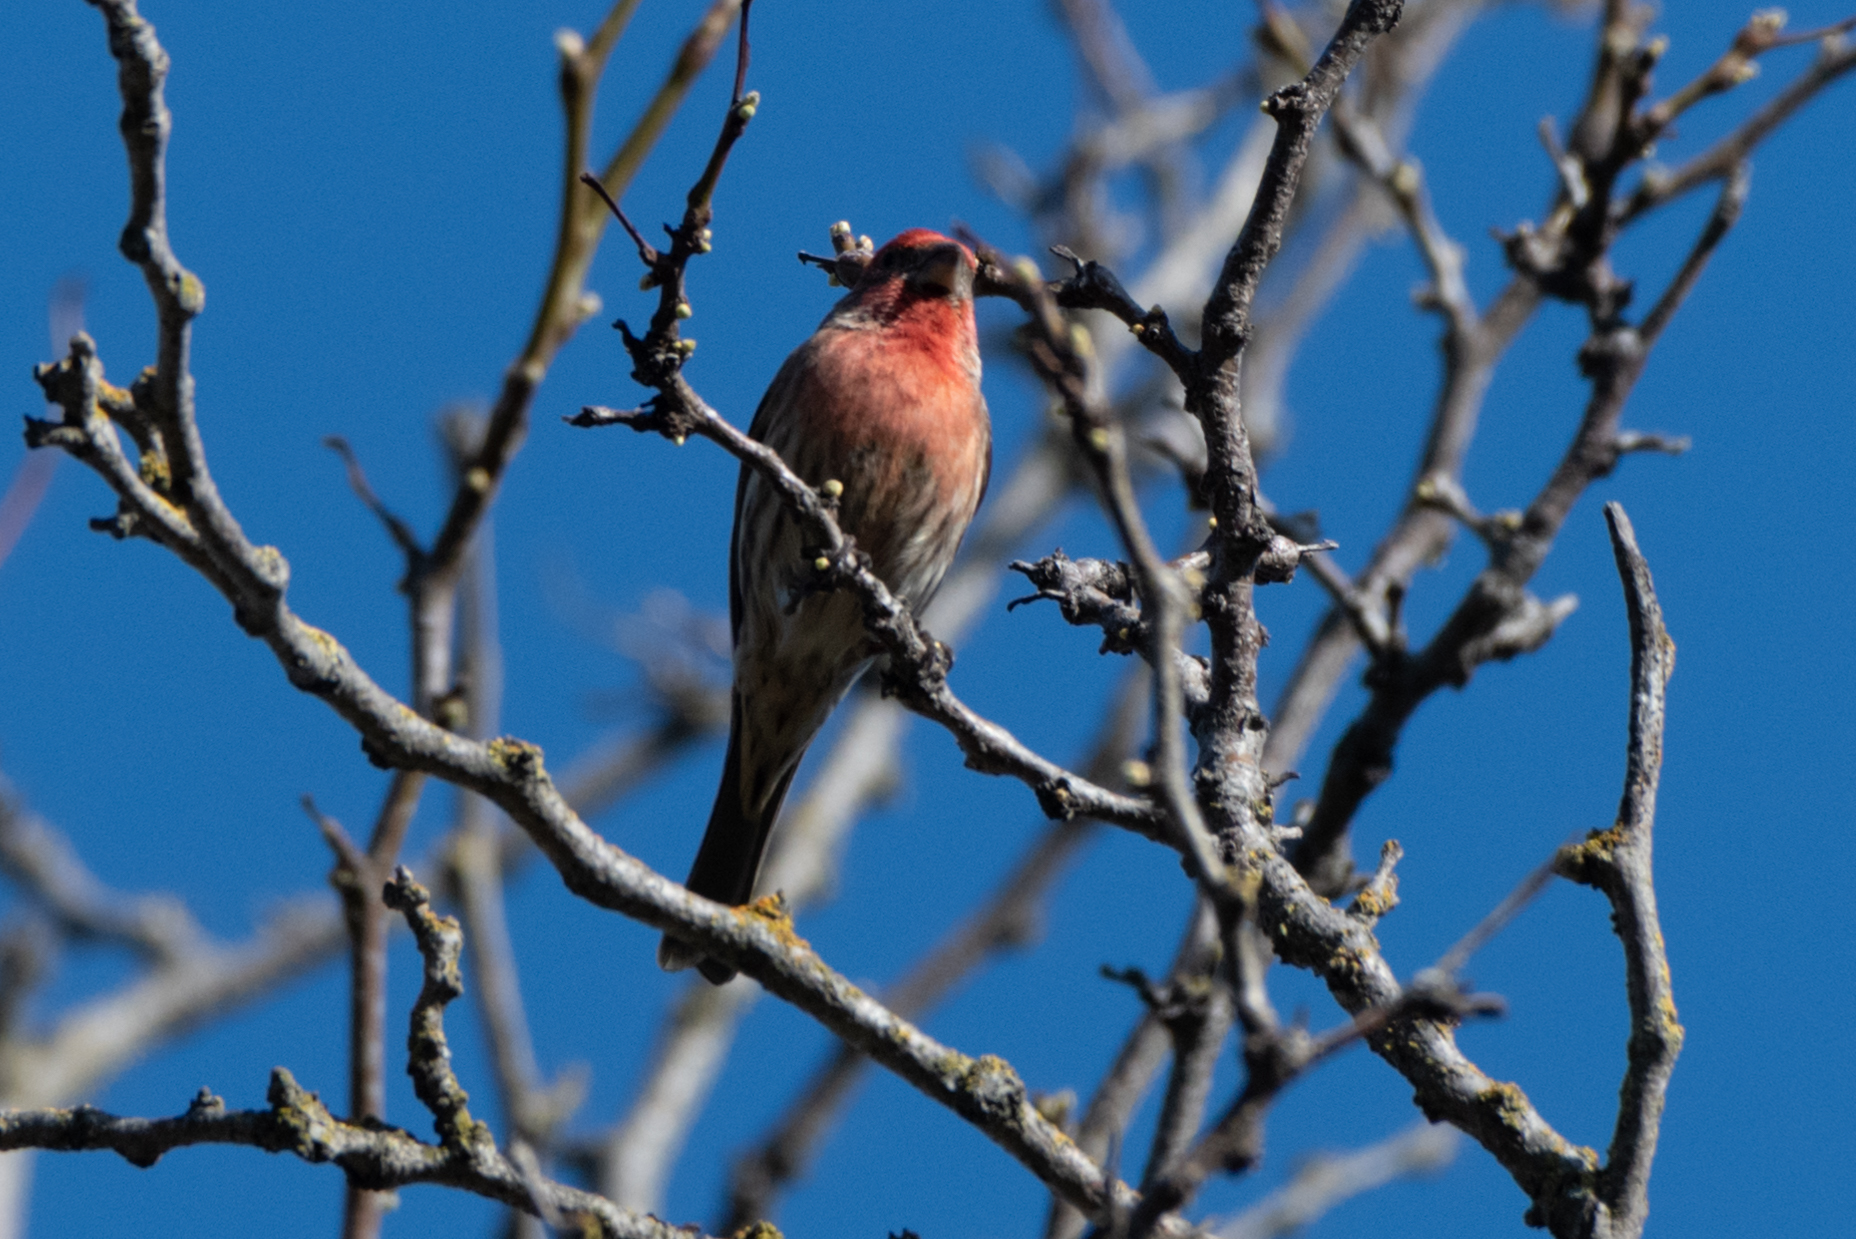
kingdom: Animalia
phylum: Chordata
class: Aves
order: Passeriformes
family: Fringillidae
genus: Haemorhous
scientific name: Haemorhous mexicanus
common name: House finch
